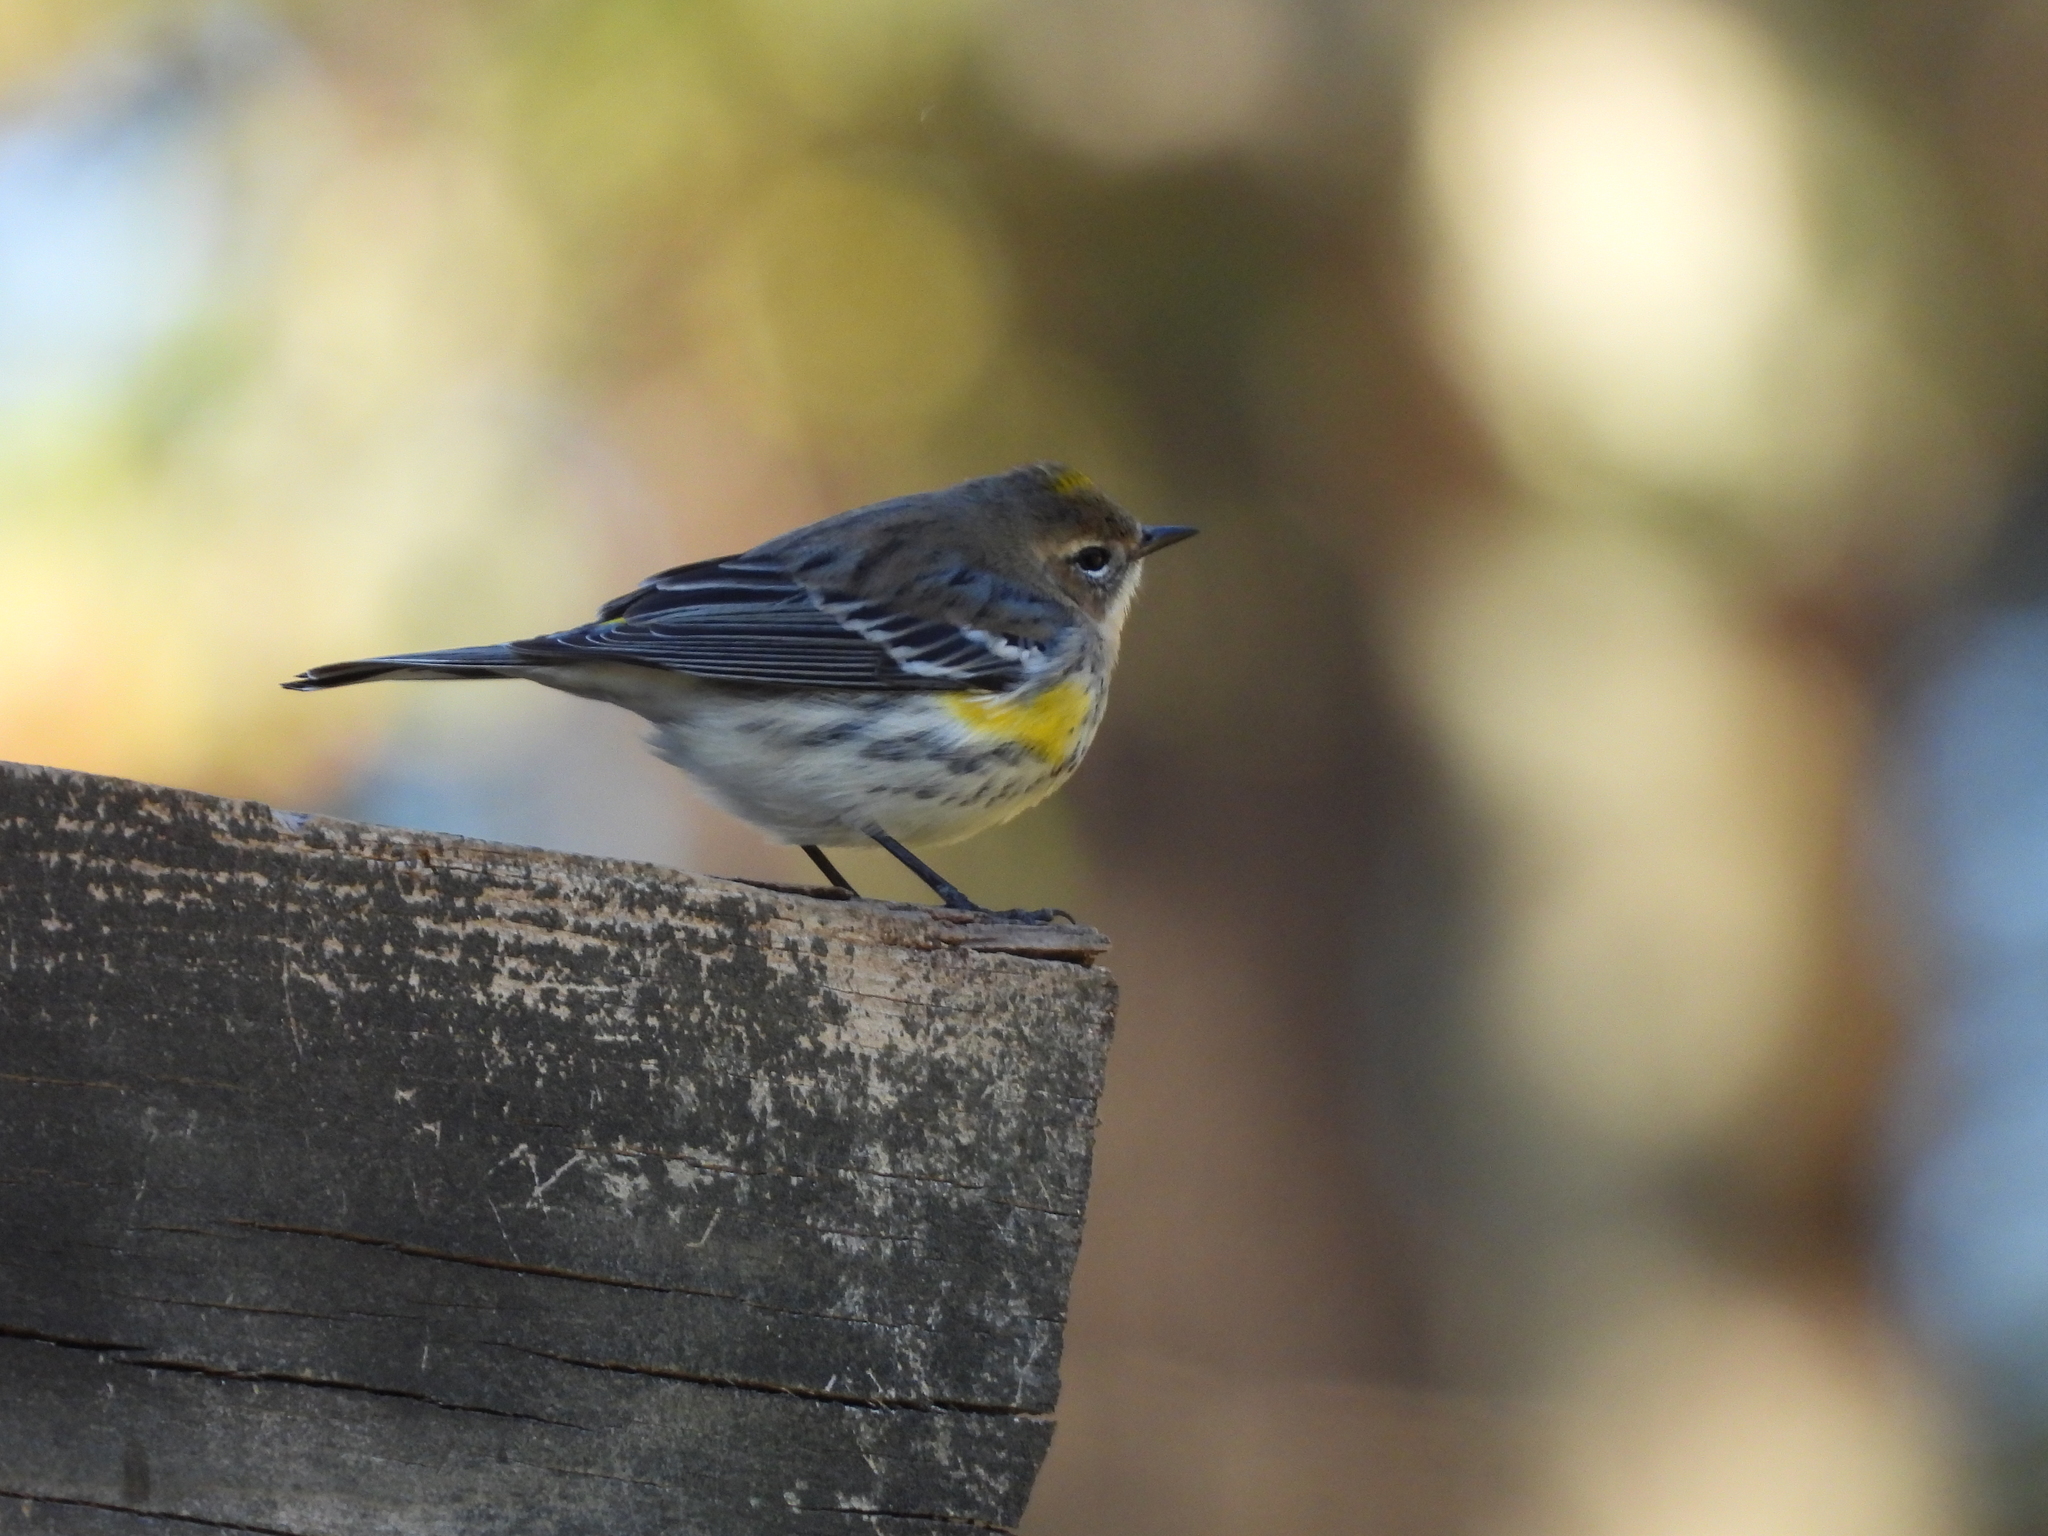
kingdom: Animalia
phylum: Chordata
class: Aves
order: Passeriformes
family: Parulidae
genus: Setophaga
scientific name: Setophaga coronata
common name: Myrtle warbler
